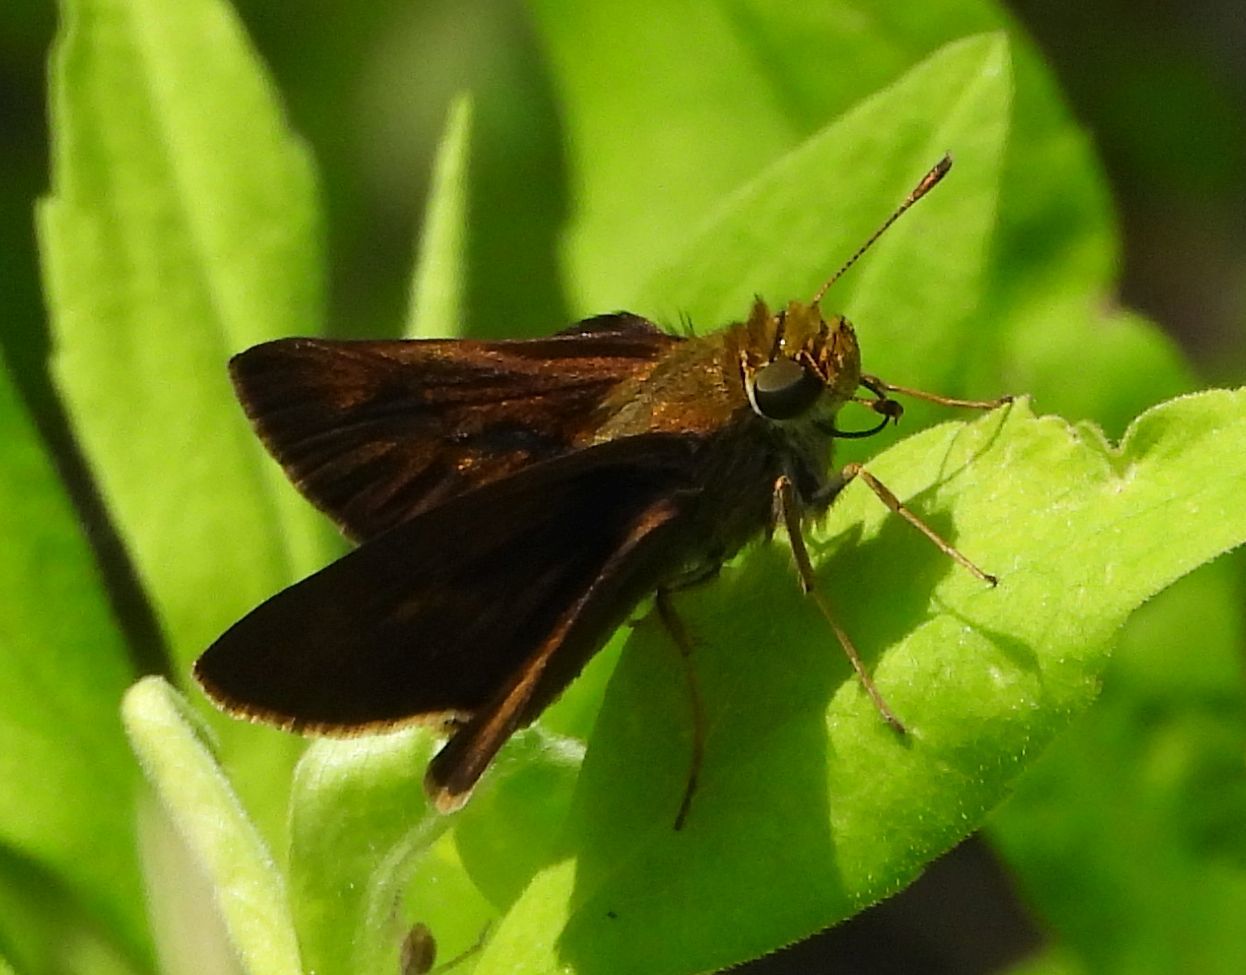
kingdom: Animalia
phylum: Arthropoda
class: Insecta
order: Lepidoptera
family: Hesperiidae
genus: Euphyes
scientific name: Euphyes vestris
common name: Dun skipper
